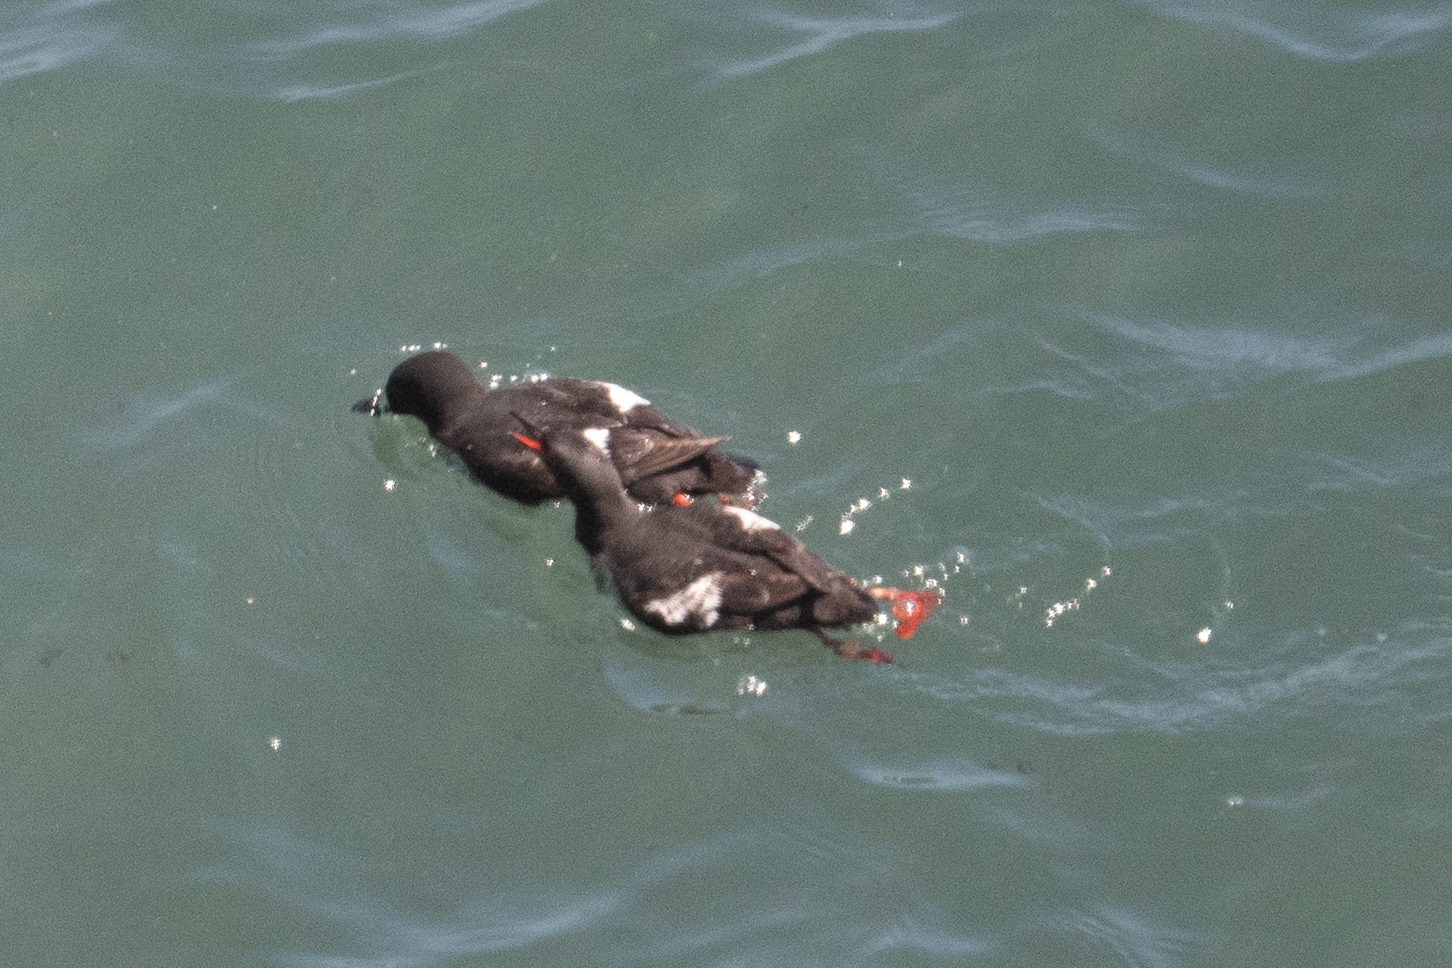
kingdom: Animalia
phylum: Chordata
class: Aves
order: Charadriiformes
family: Alcidae
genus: Cepphus
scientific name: Cepphus columba
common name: Pigeon guillemot
